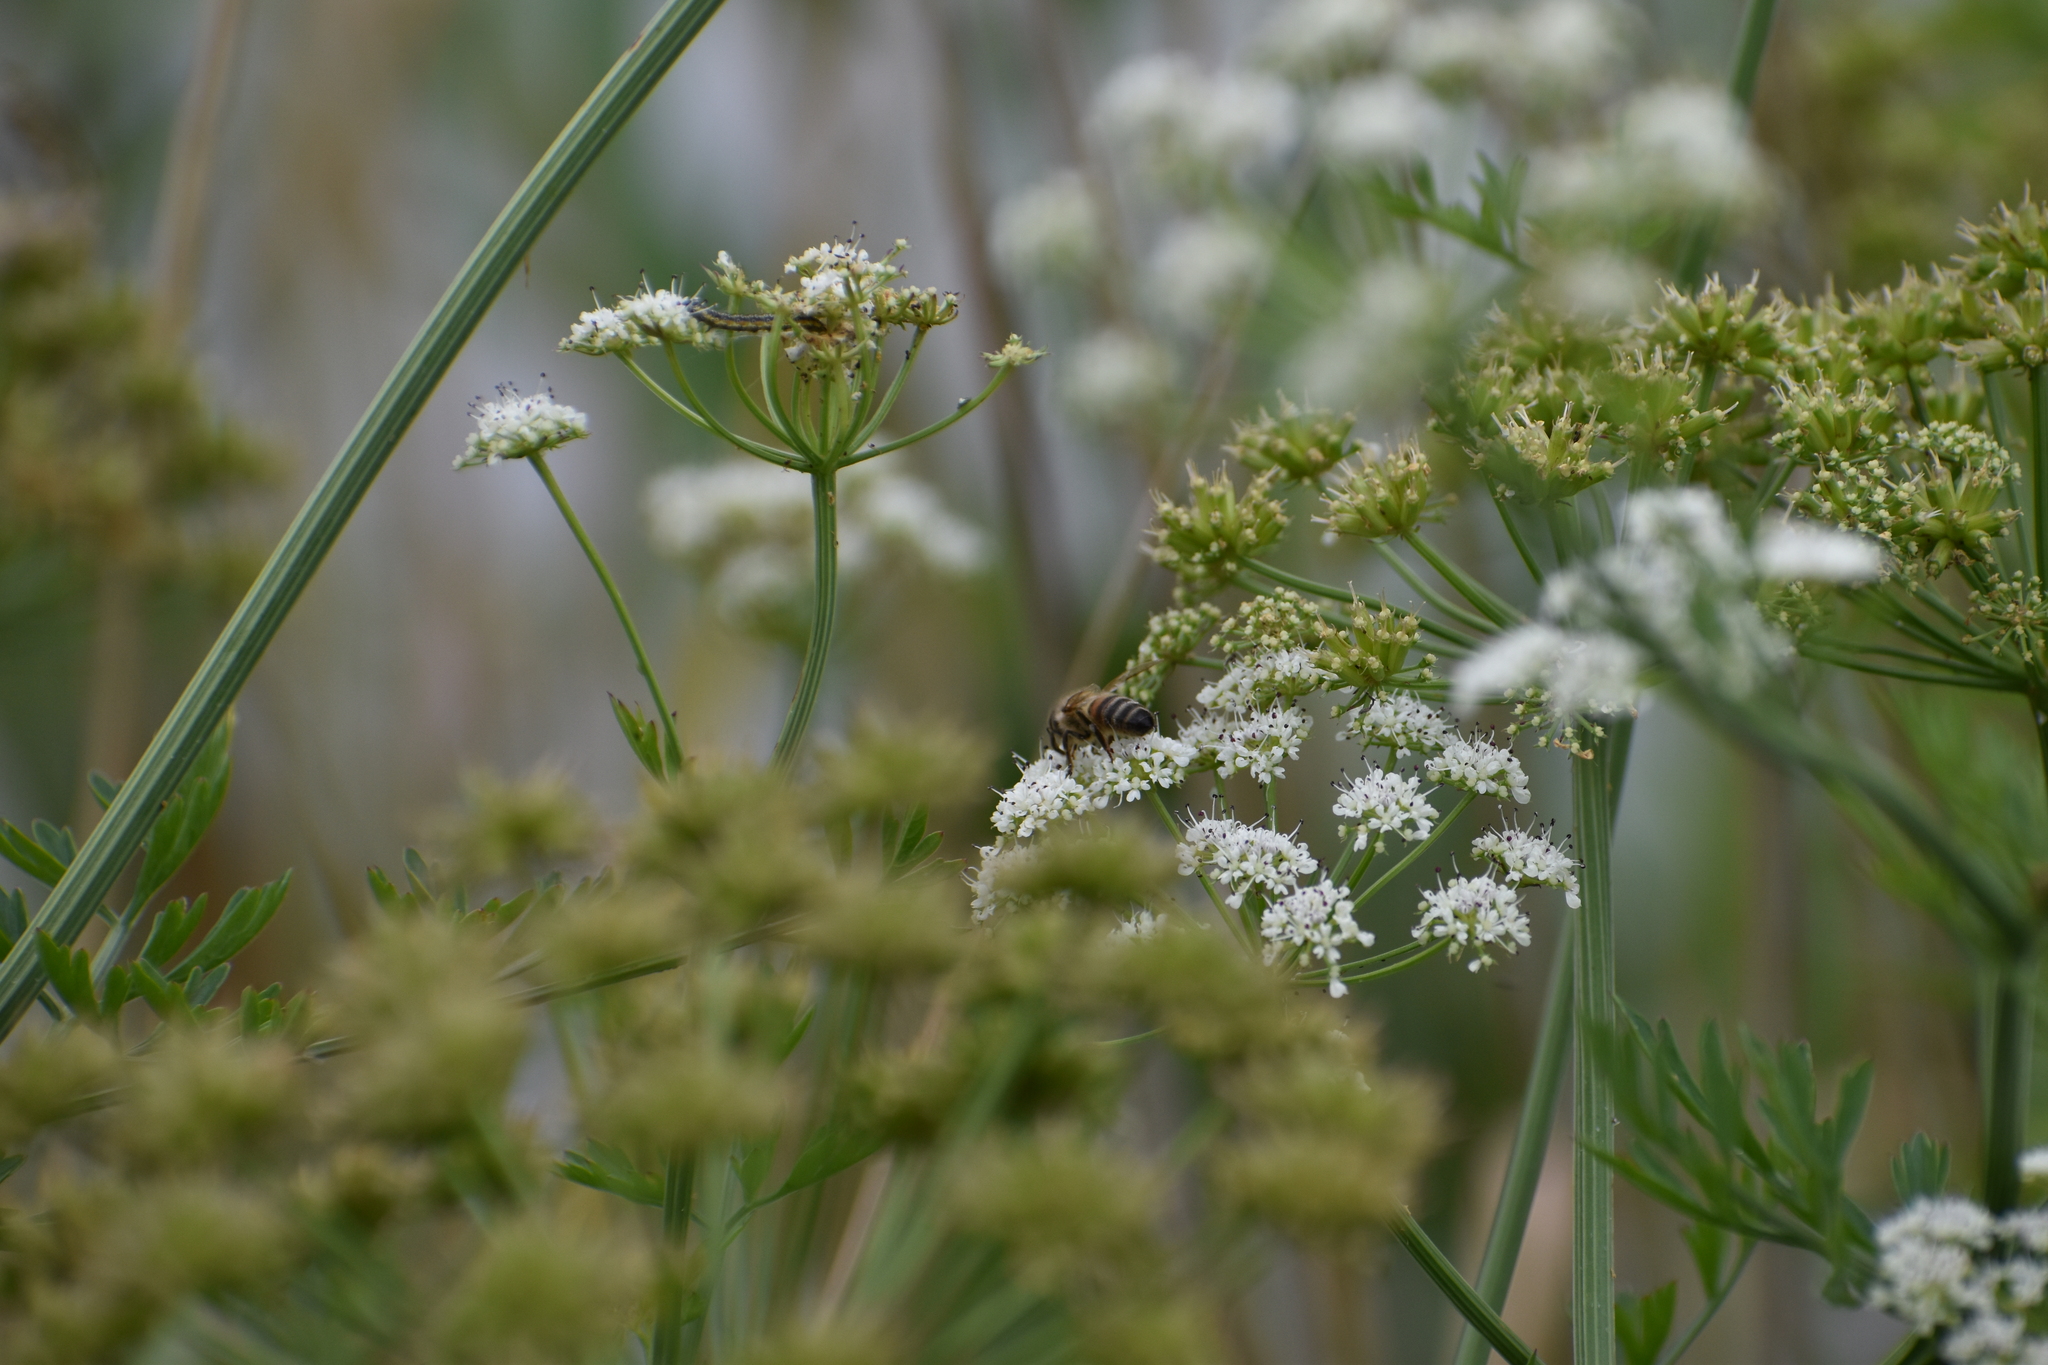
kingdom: Animalia
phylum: Arthropoda
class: Insecta
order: Hymenoptera
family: Apidae
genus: Apis
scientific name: Apis mellifera
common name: Honey bee
